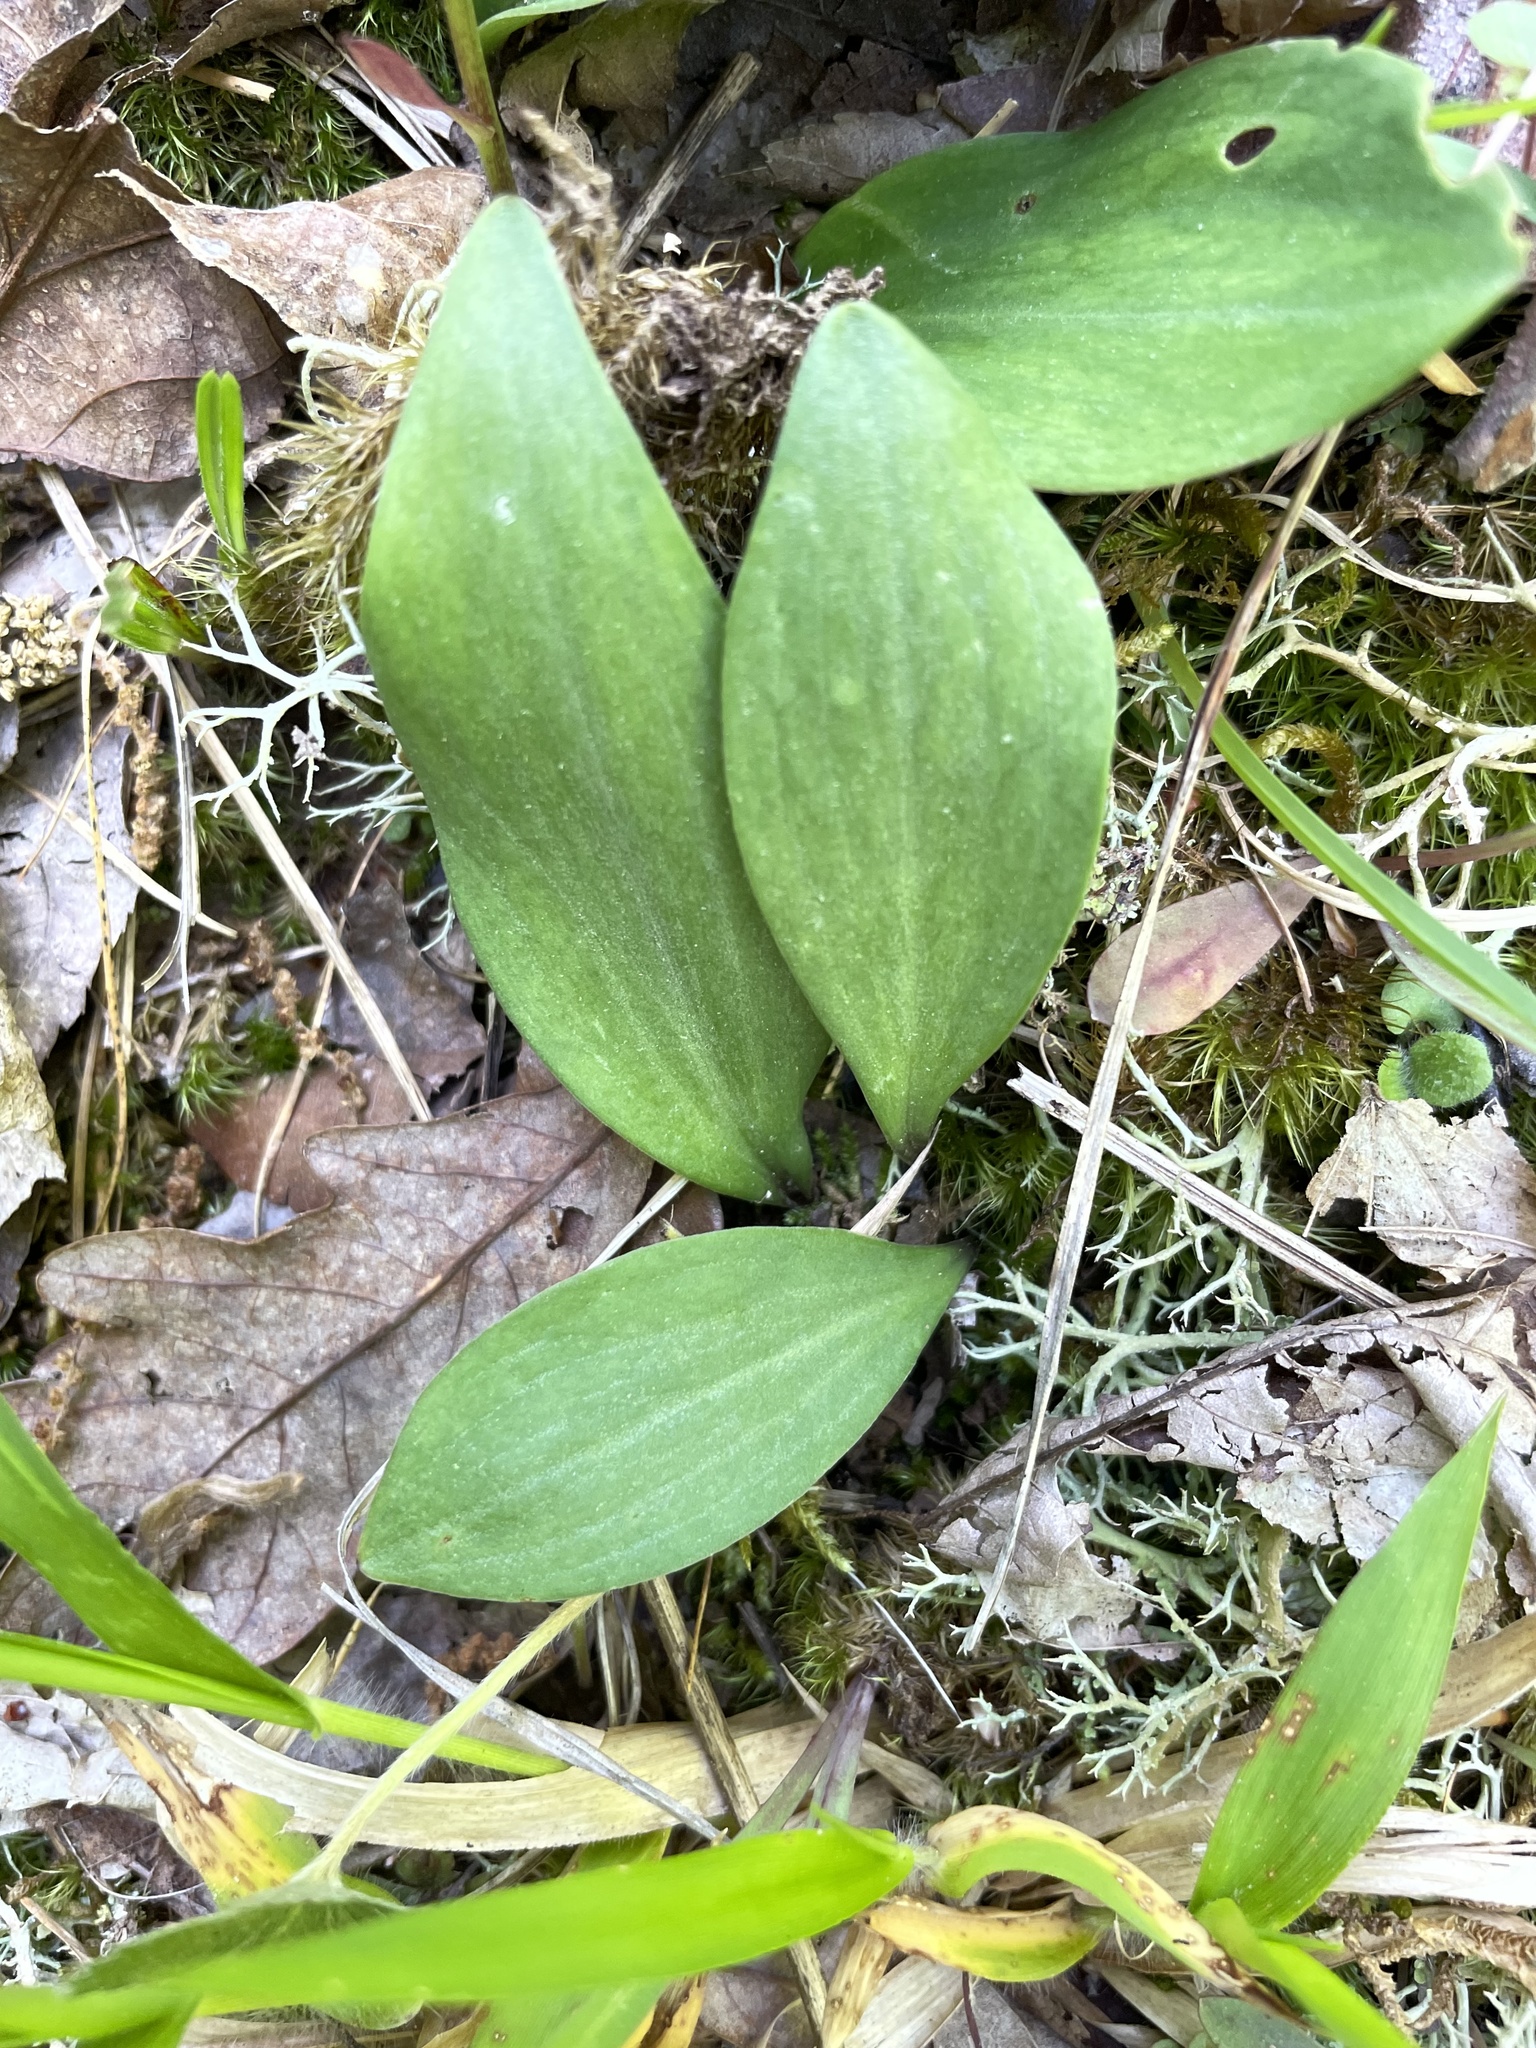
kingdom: Plantae
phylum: Tracheophyta
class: Liliopsida
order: Liliales
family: Liliaceae
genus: Lilium
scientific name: Lilium michauxii
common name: Carolina lily
